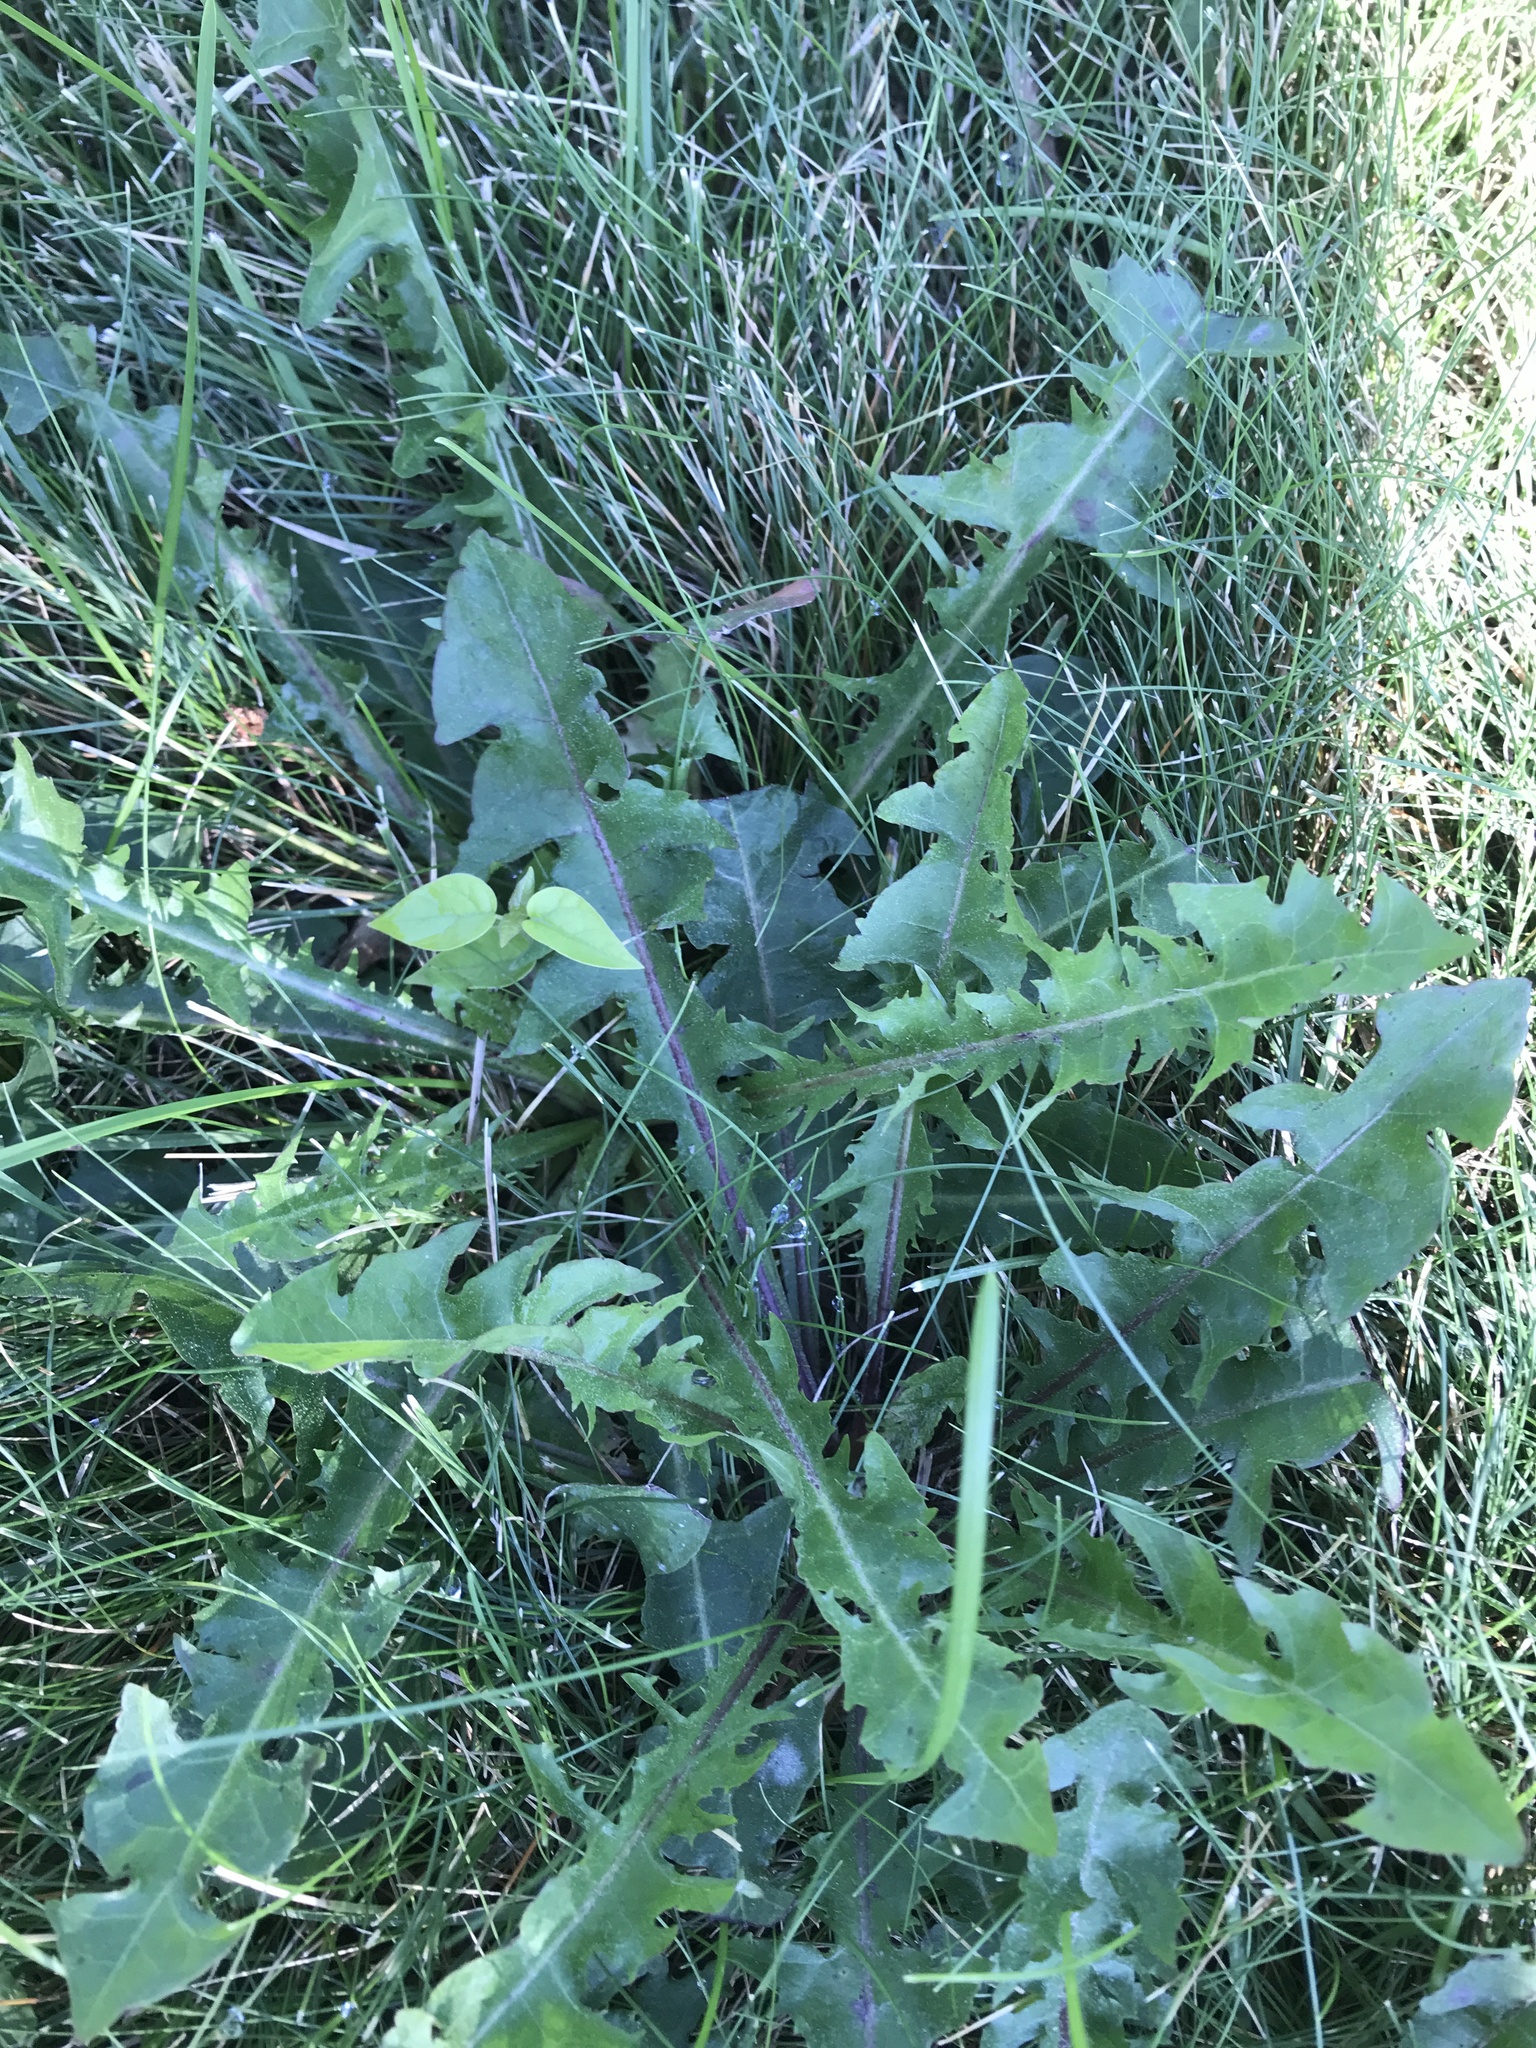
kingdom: Plantae
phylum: Tracheophyta
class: Magnoliopsida
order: Asterales
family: Asteraceae
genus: Taraxacum
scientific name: Taraxacum officinale
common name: Common dandelion
